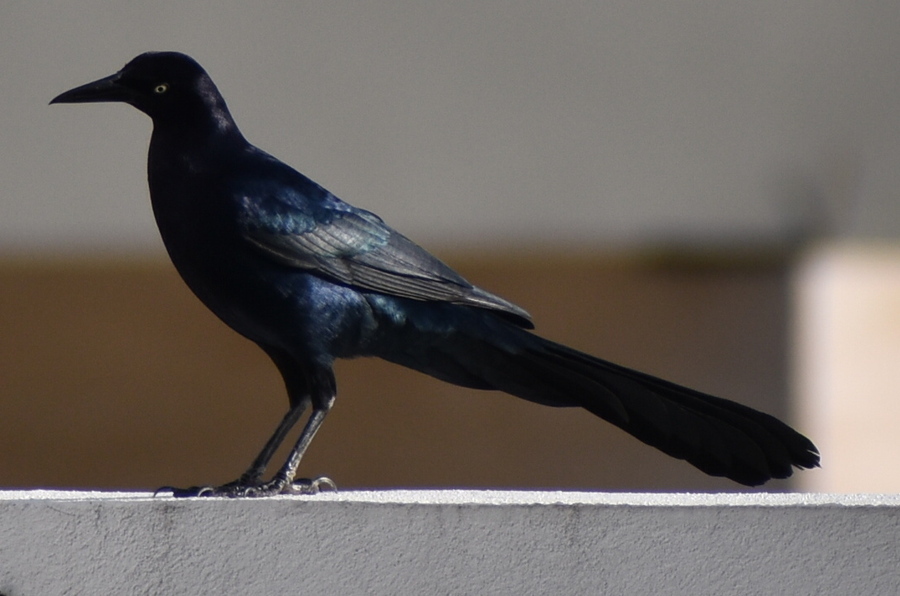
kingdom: Animalia
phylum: Chordata
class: Aves
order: Passeriformes
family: Icteridae
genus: Quiscalus
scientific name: Quiscalus mexicanus
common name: Great-tailed grackle
